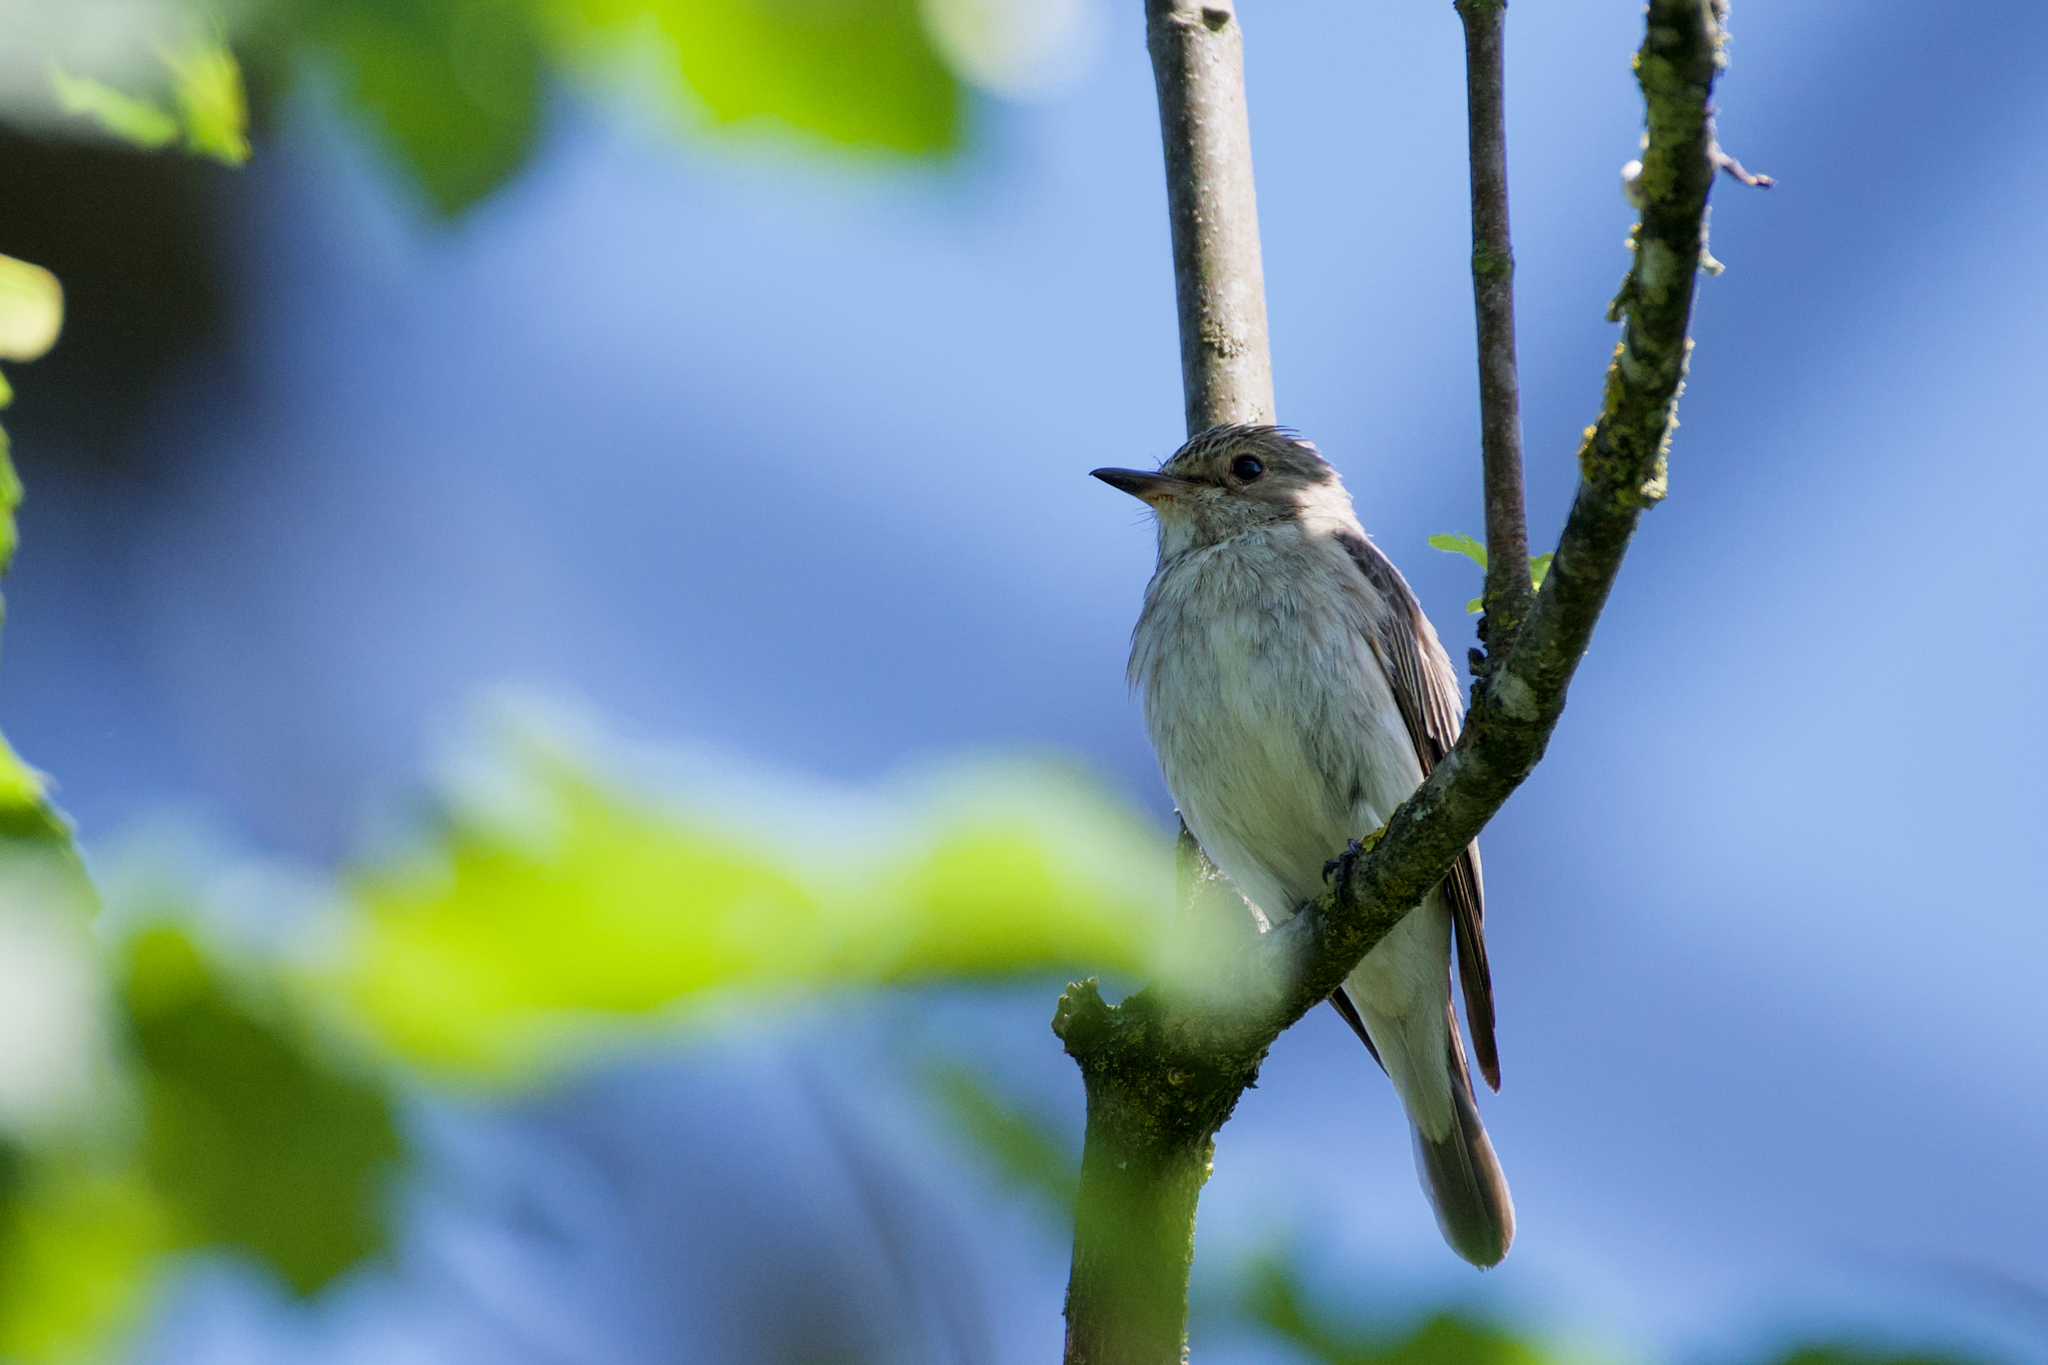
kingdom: Animalia
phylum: Chordata
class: Aves
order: Passeriformes
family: Muscicapidae
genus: Muscicapa
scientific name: Muscicapa striata
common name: Spotted flycatcher
